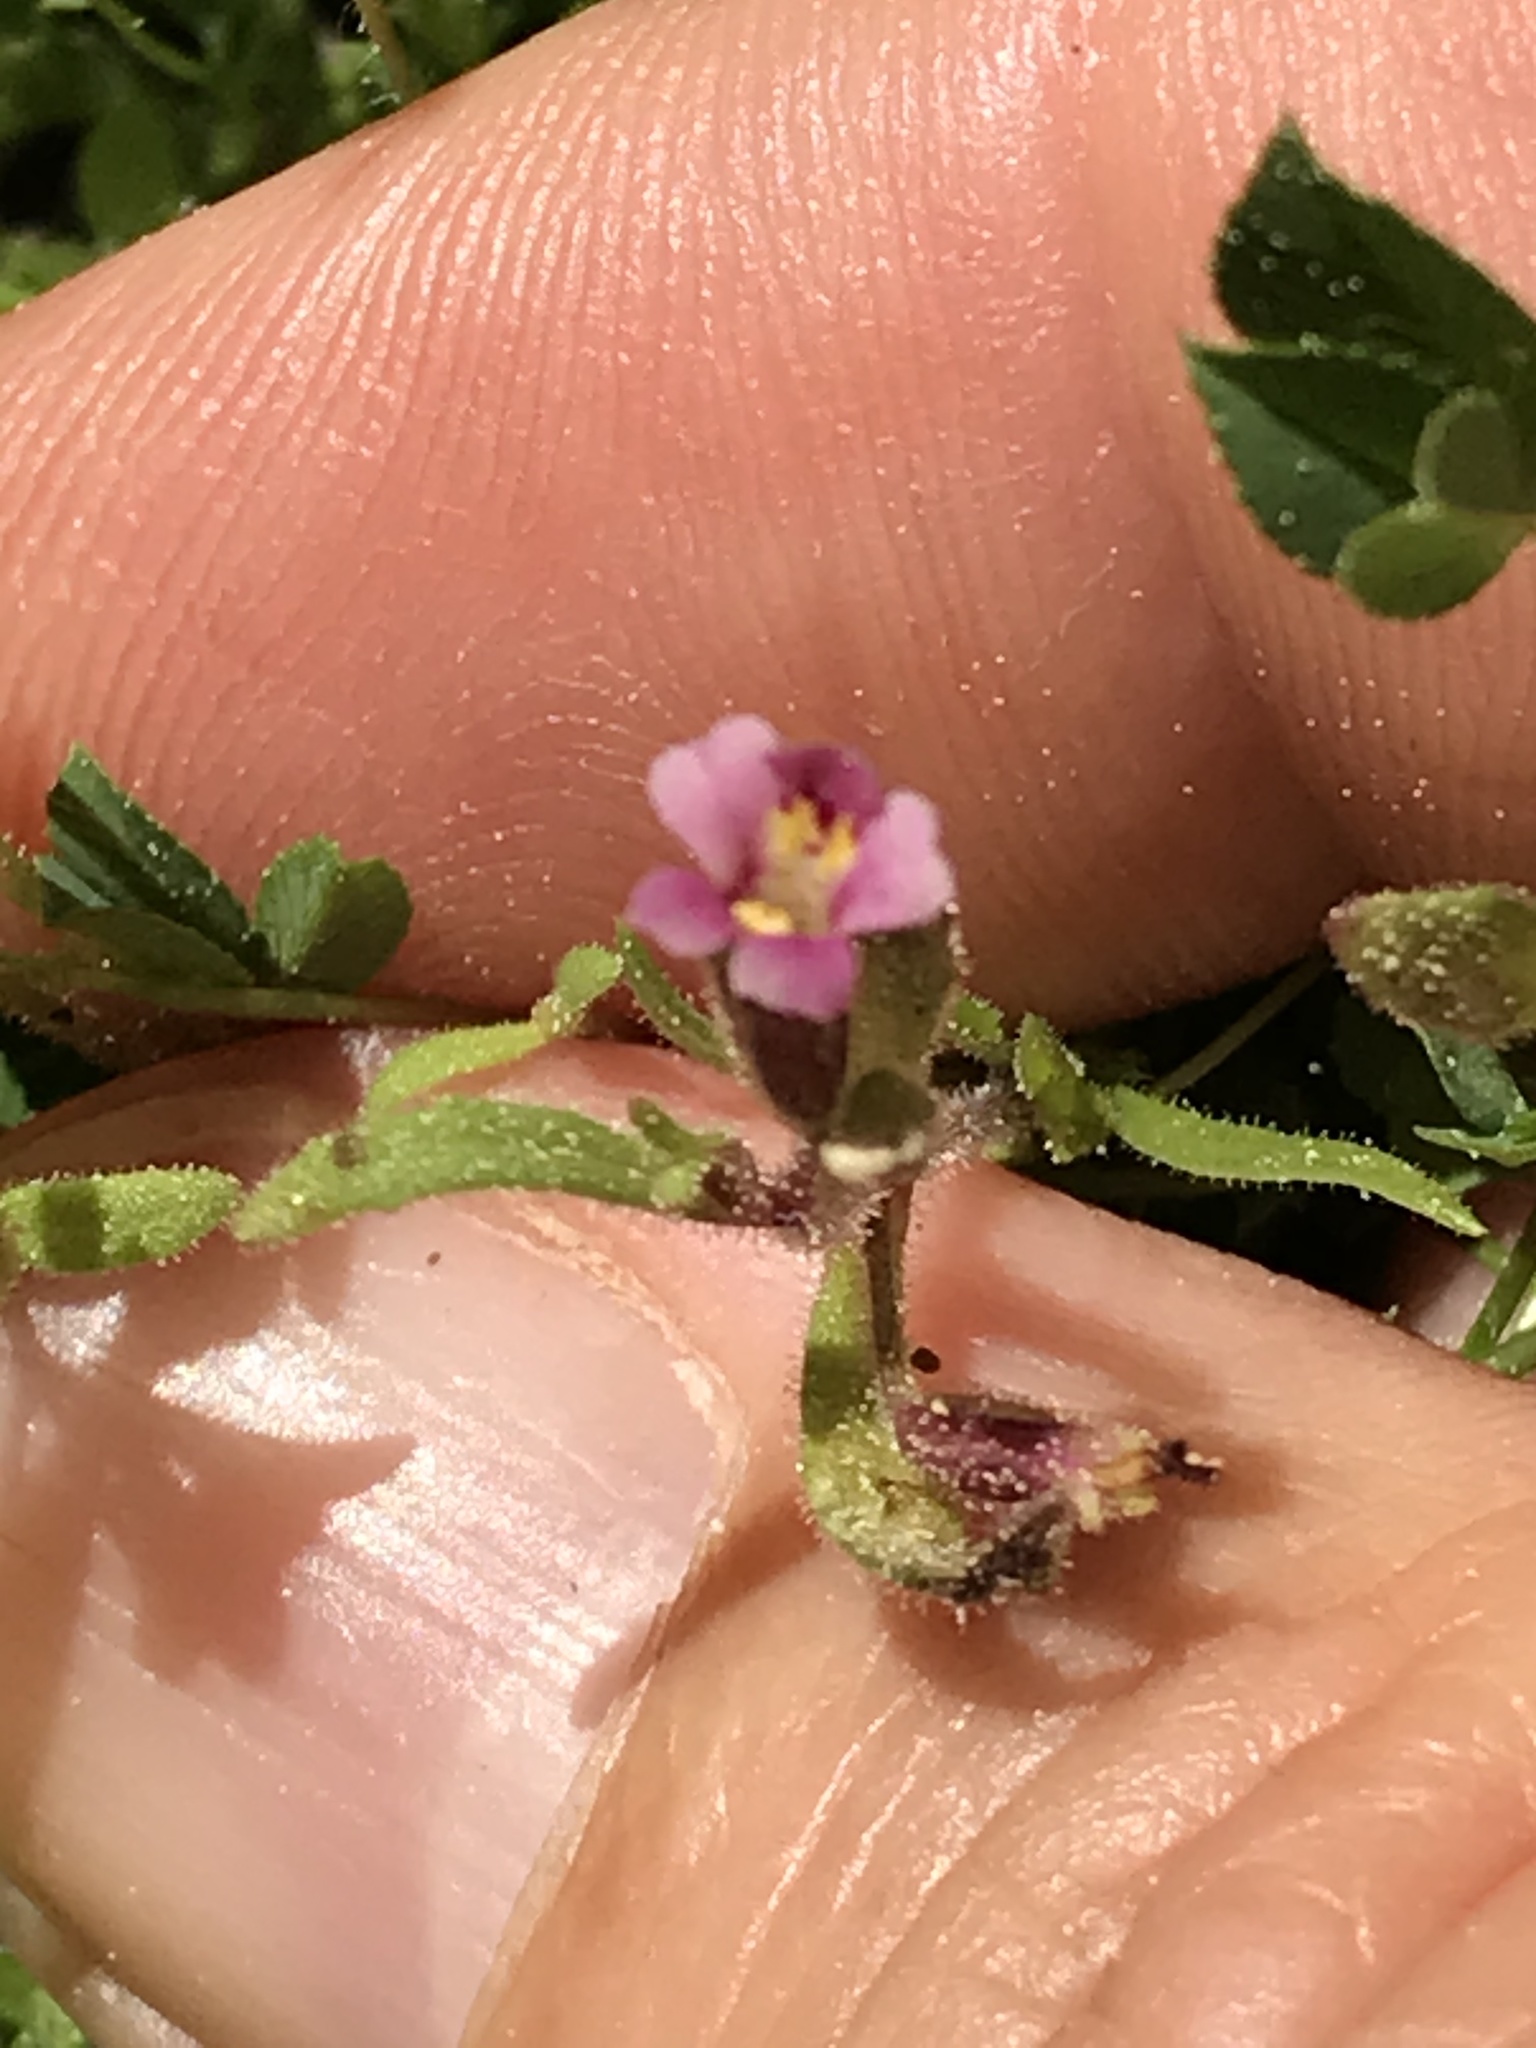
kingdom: Plantae
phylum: Tracheophyta
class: Magnoliopsida
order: Lamiales
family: Phrymaceae
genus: Erythranthe
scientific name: Erythranthe breweri
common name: Brewer's monkeyflower
